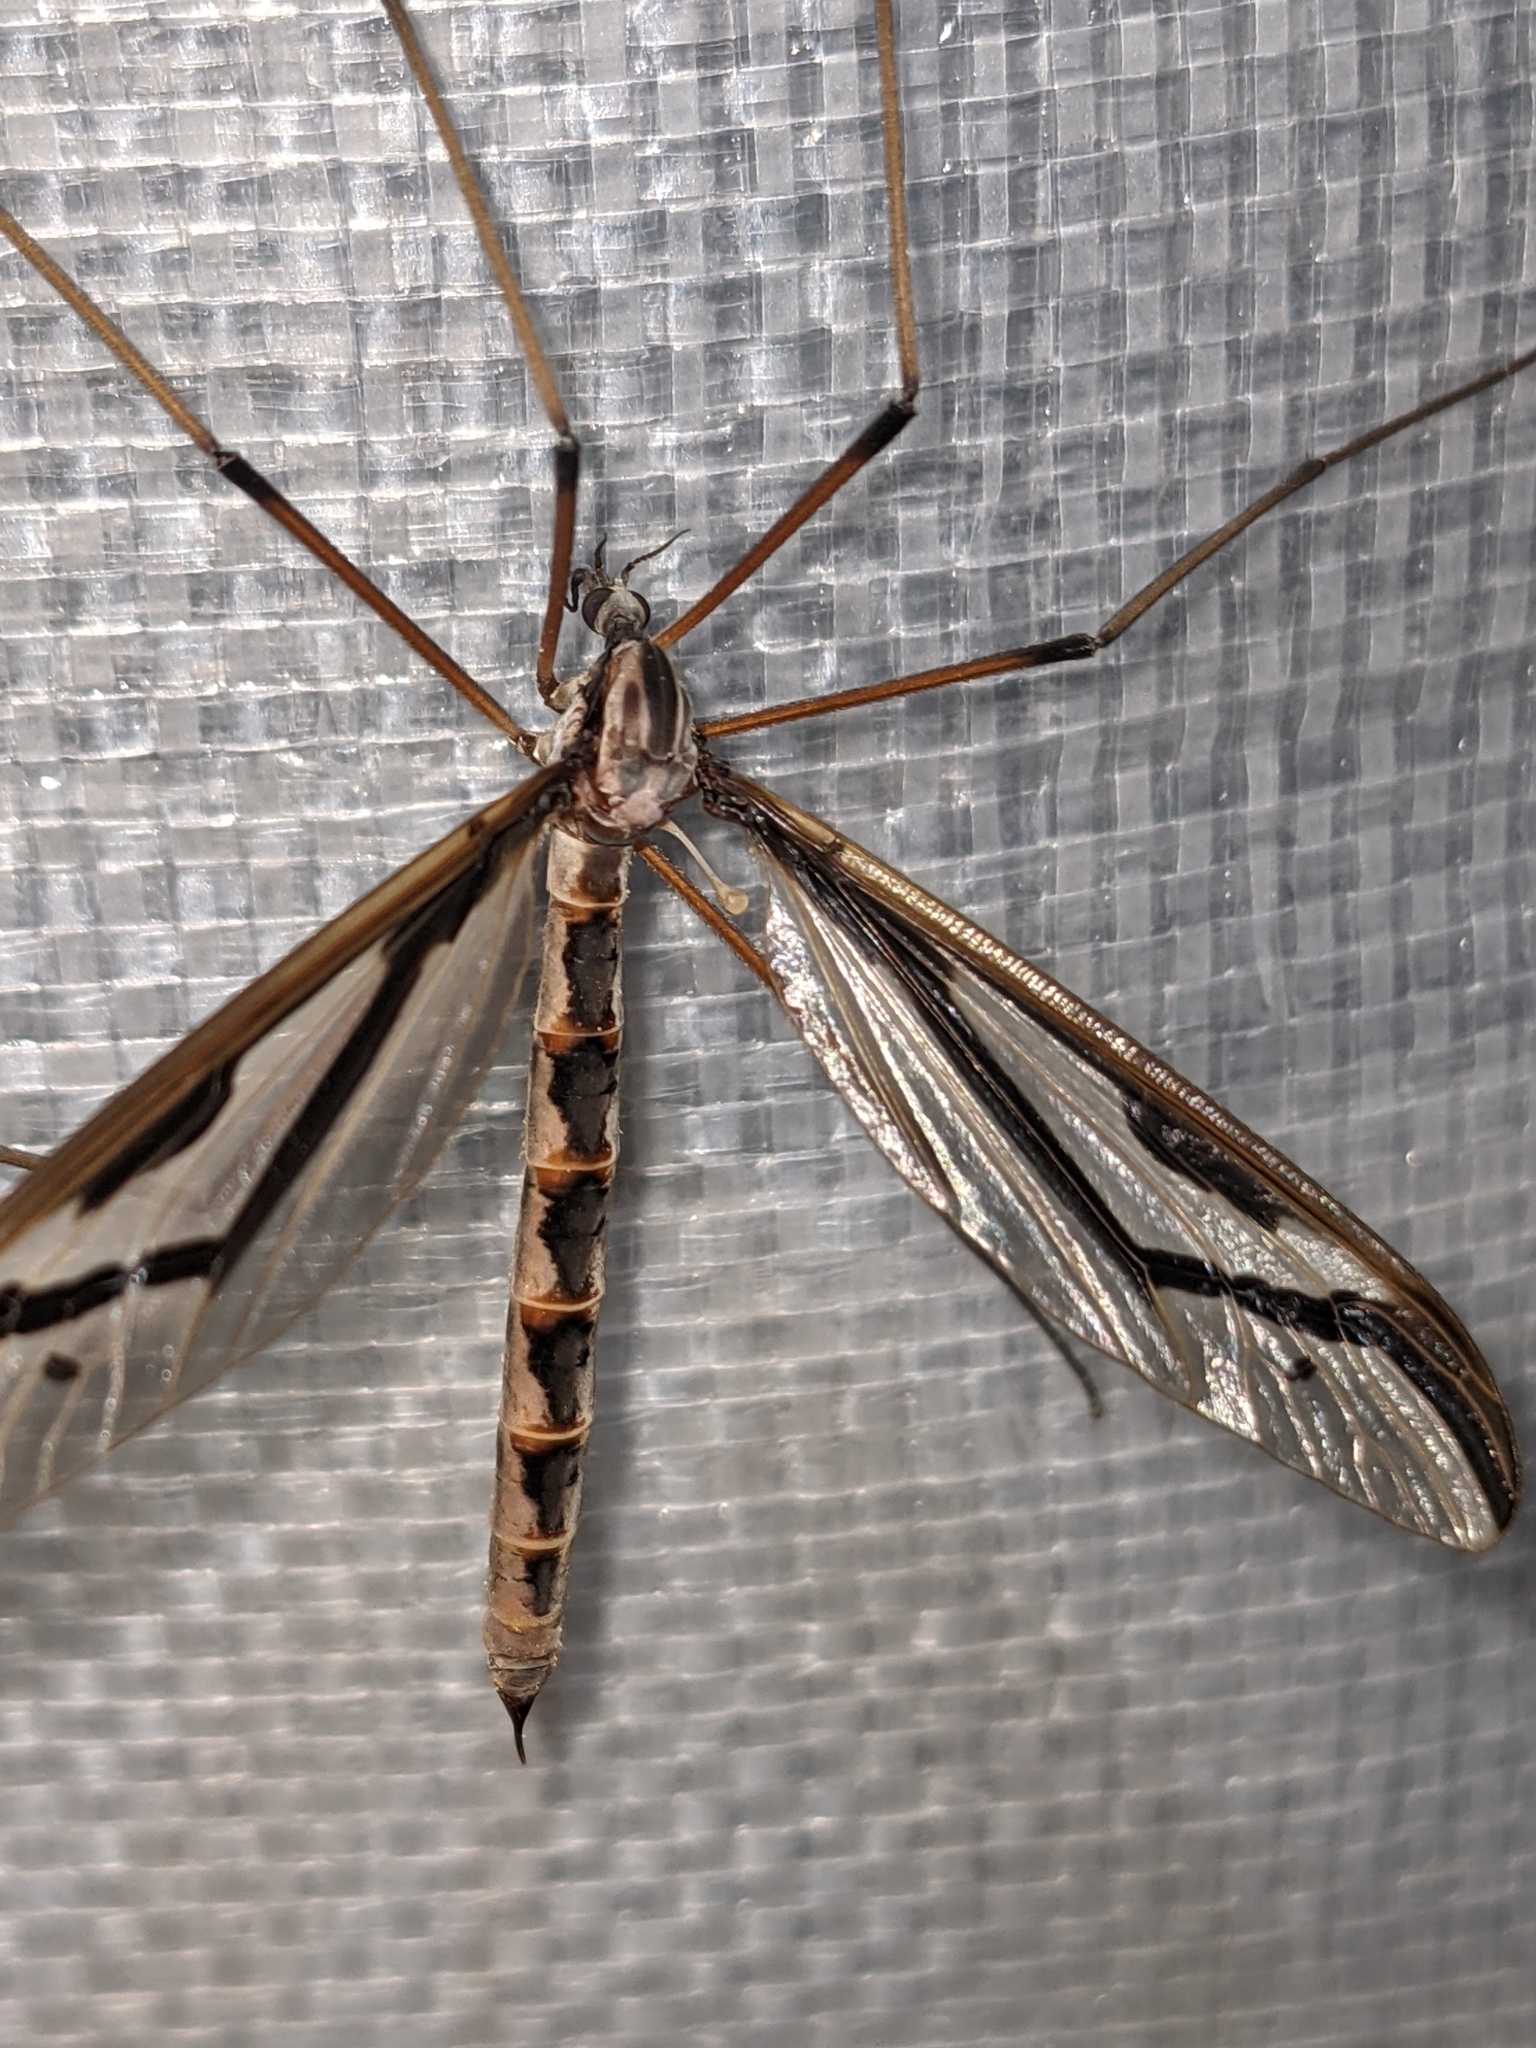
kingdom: Animalia
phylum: Arthropoda
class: Insecta
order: Diptera
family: Pediciidae
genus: Pedicia
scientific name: Pedicia procteriana
